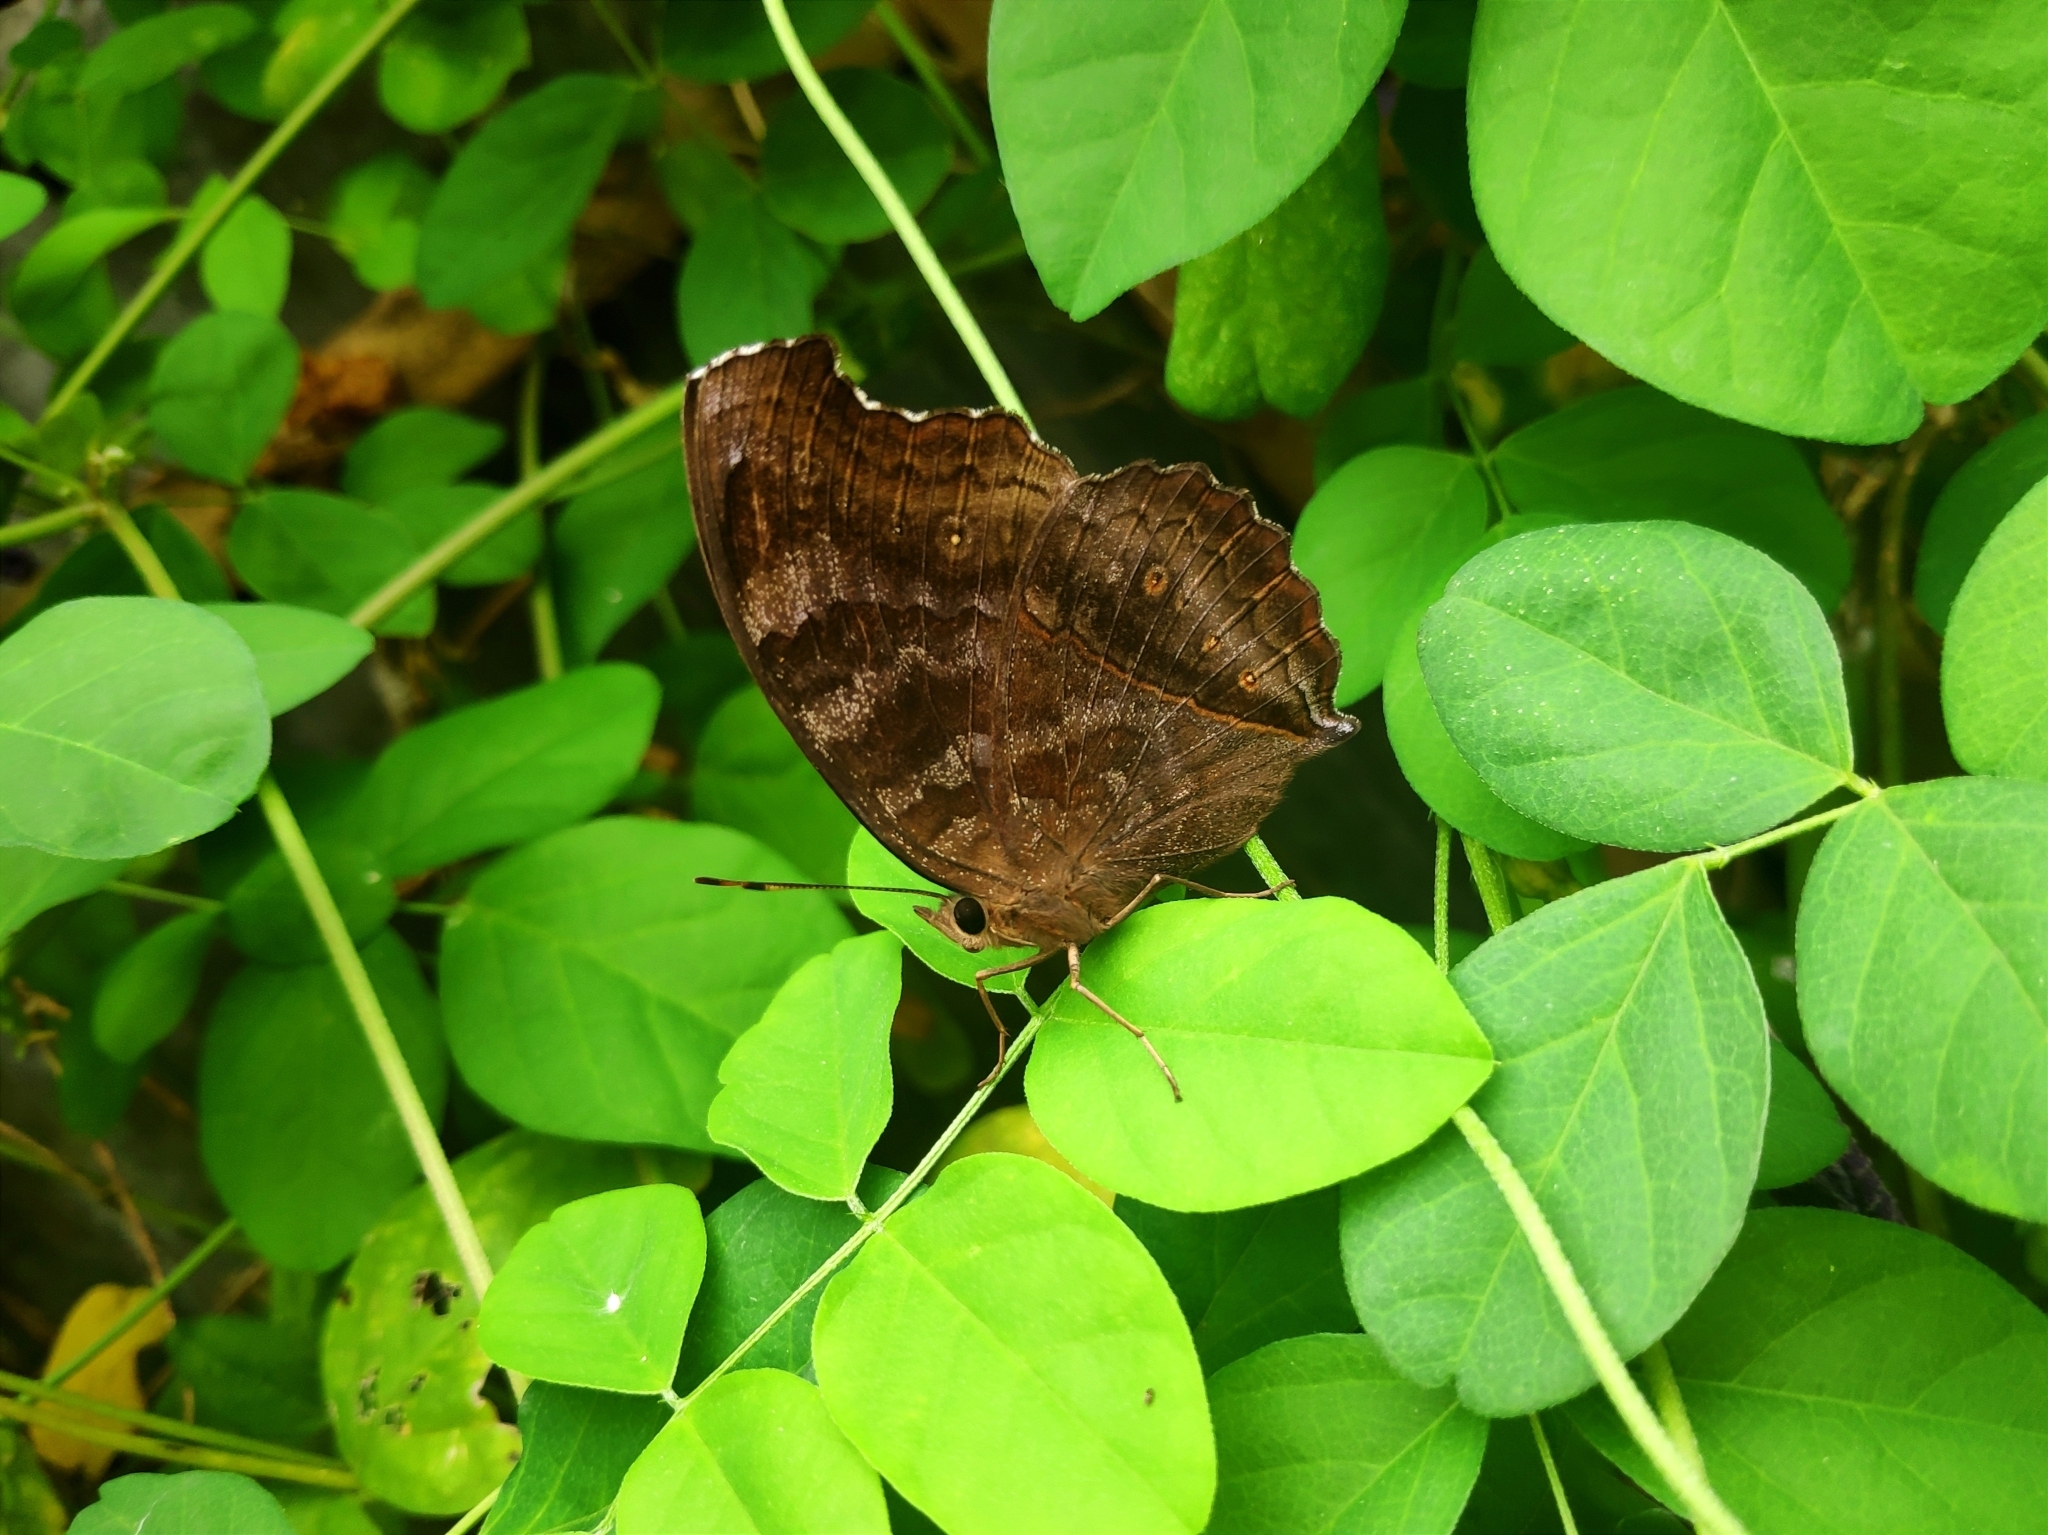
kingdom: Animalia
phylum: Arthropoda
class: Insecta
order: Lepidoptera
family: Nymphalidae
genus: Junonia
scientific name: Junonia iphita
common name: Chocolate pansy
